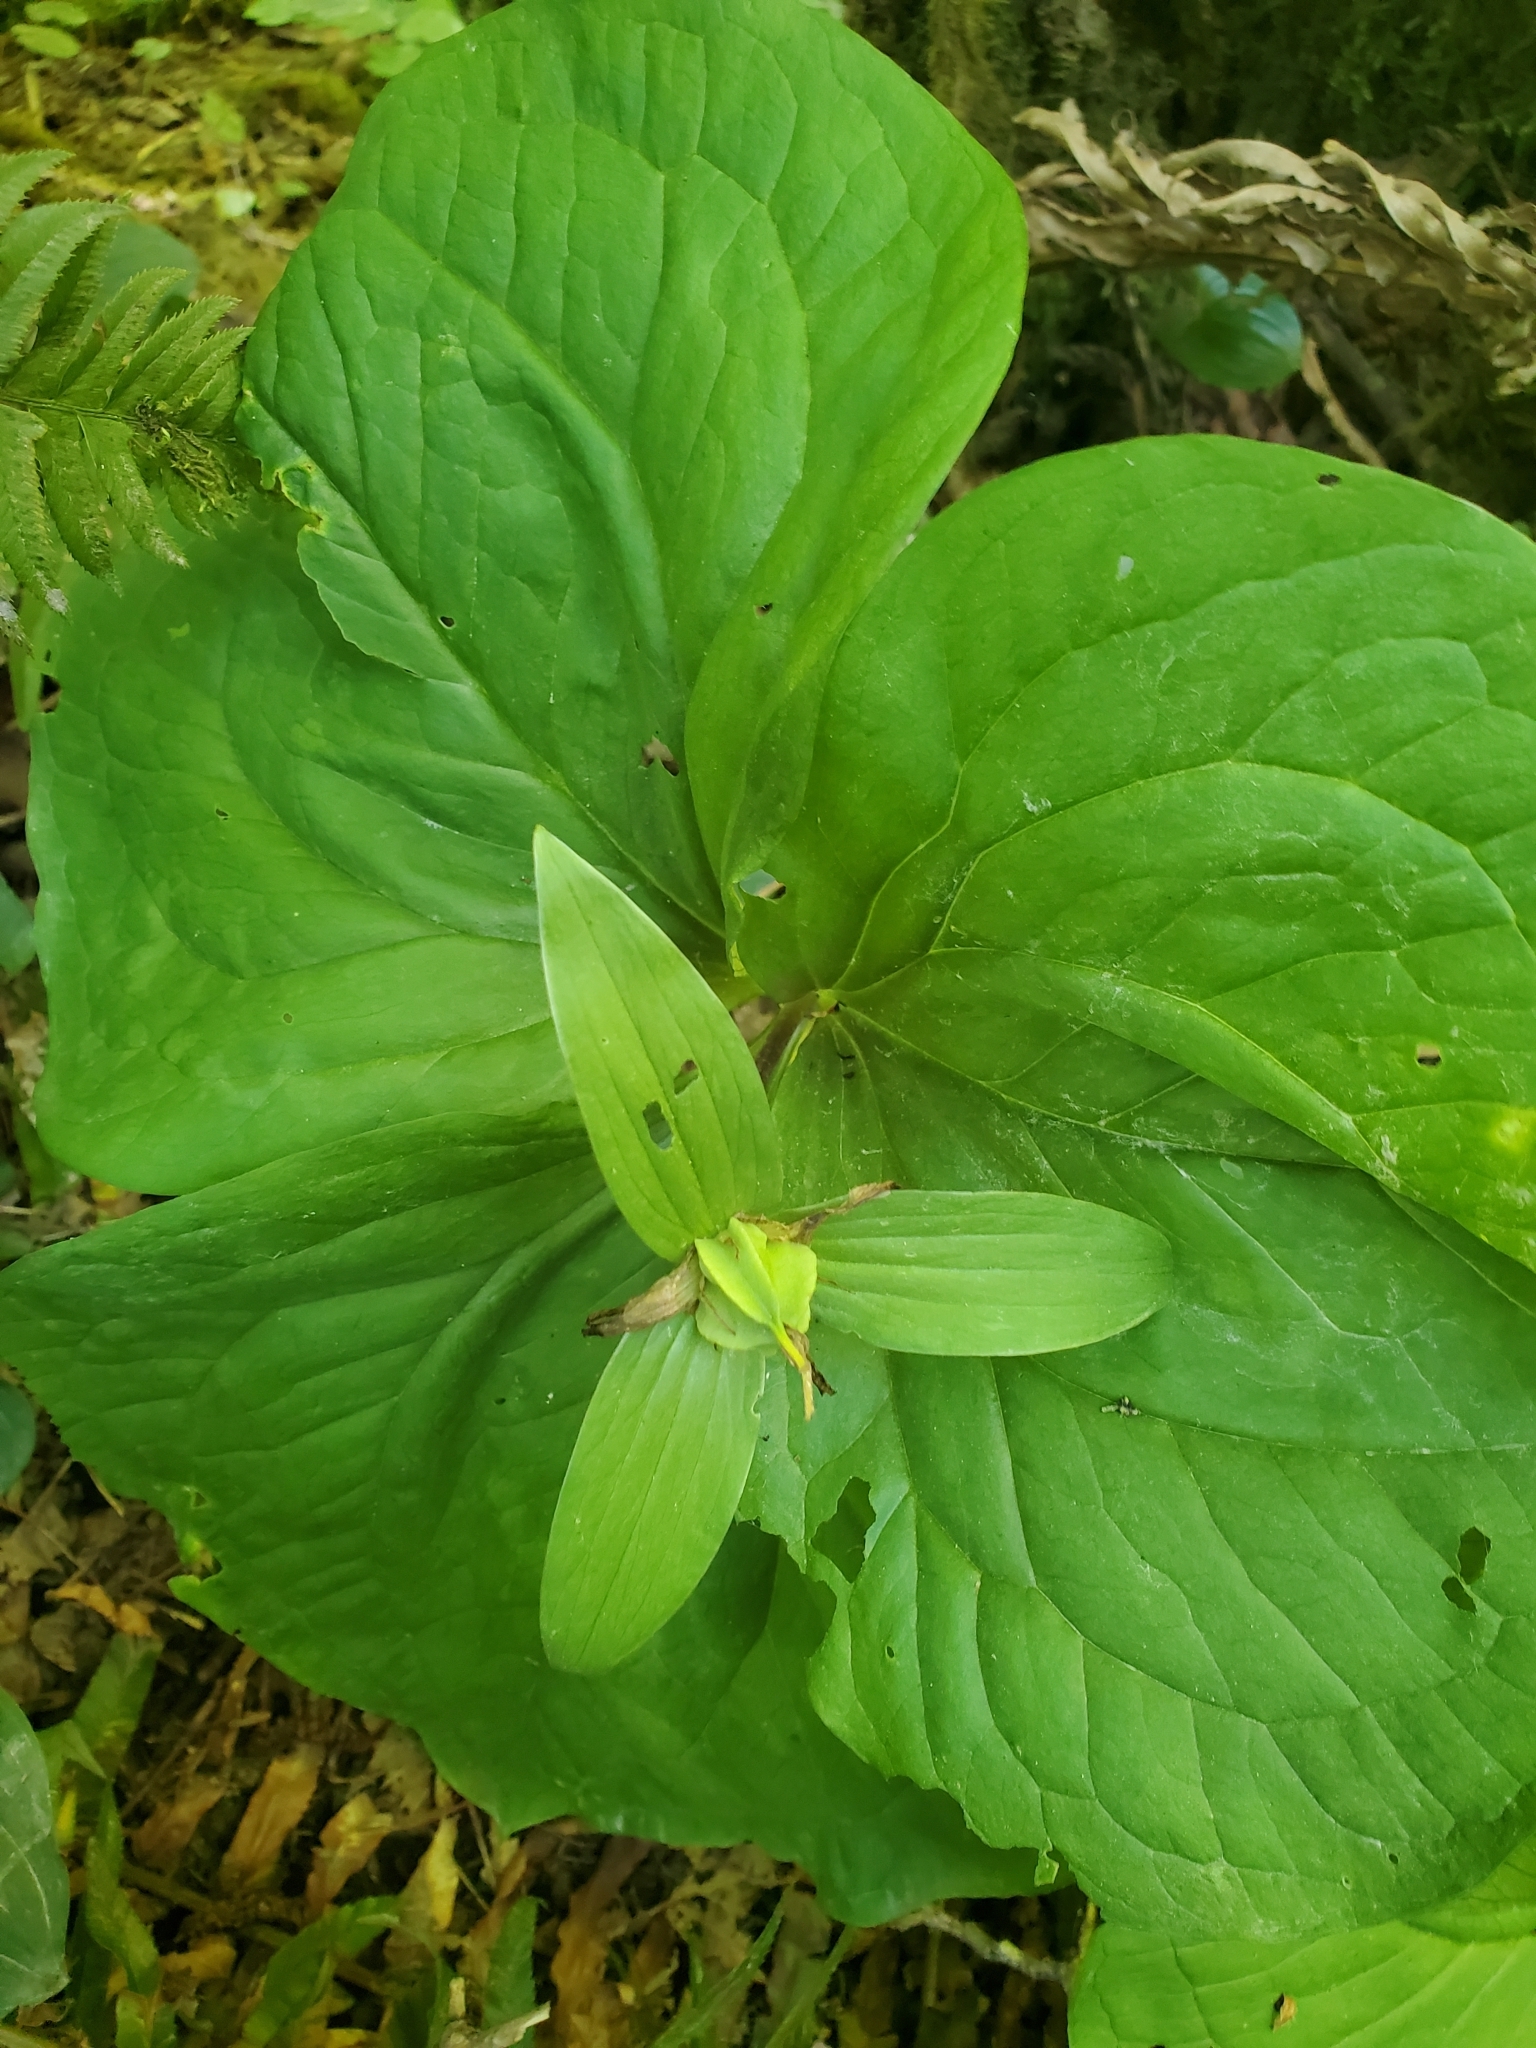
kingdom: Plantae
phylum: Tracheophyta
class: Liliopsida
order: Liliales
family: Melanthiaceae
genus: Trillium
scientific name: Trillium ovatum
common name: Pacific trillium
